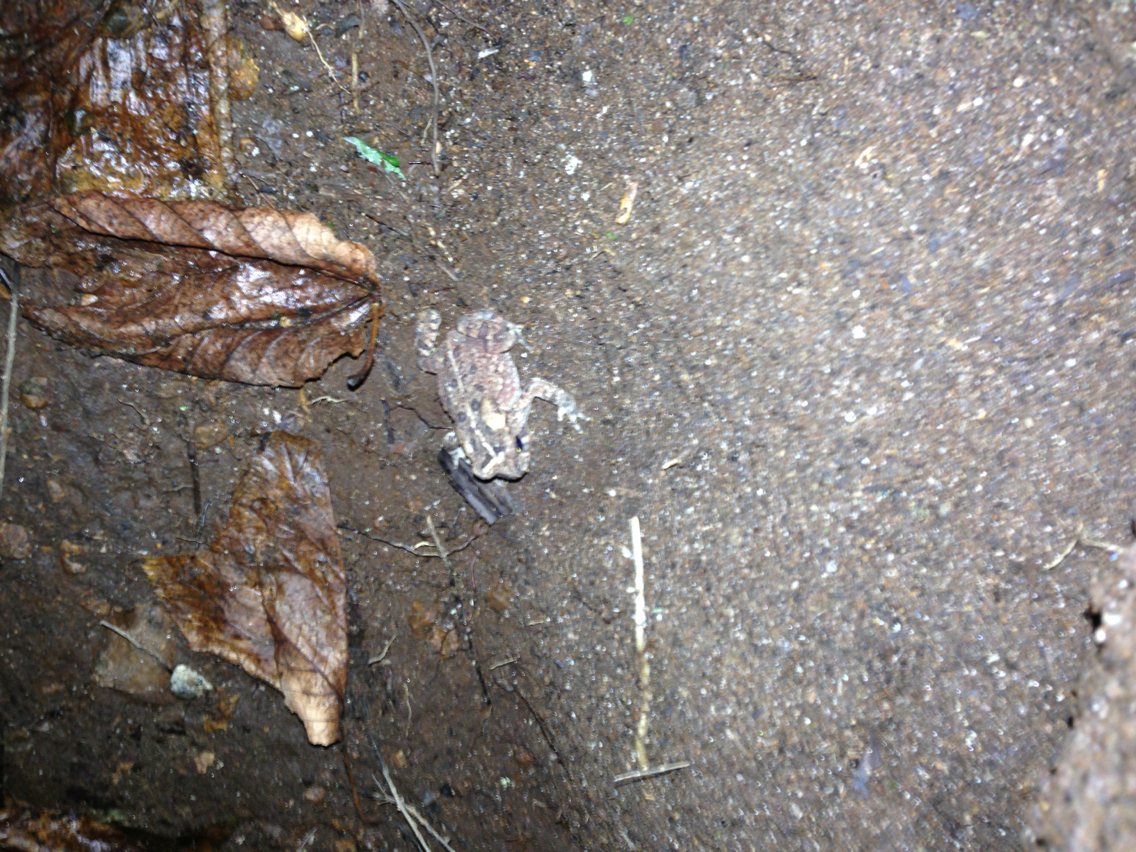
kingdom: Animalia
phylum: Chordata
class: Amphibia
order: Anura
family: Bufonidae
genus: Anaxyrus
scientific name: Anaxyrus americanus
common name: American toad
